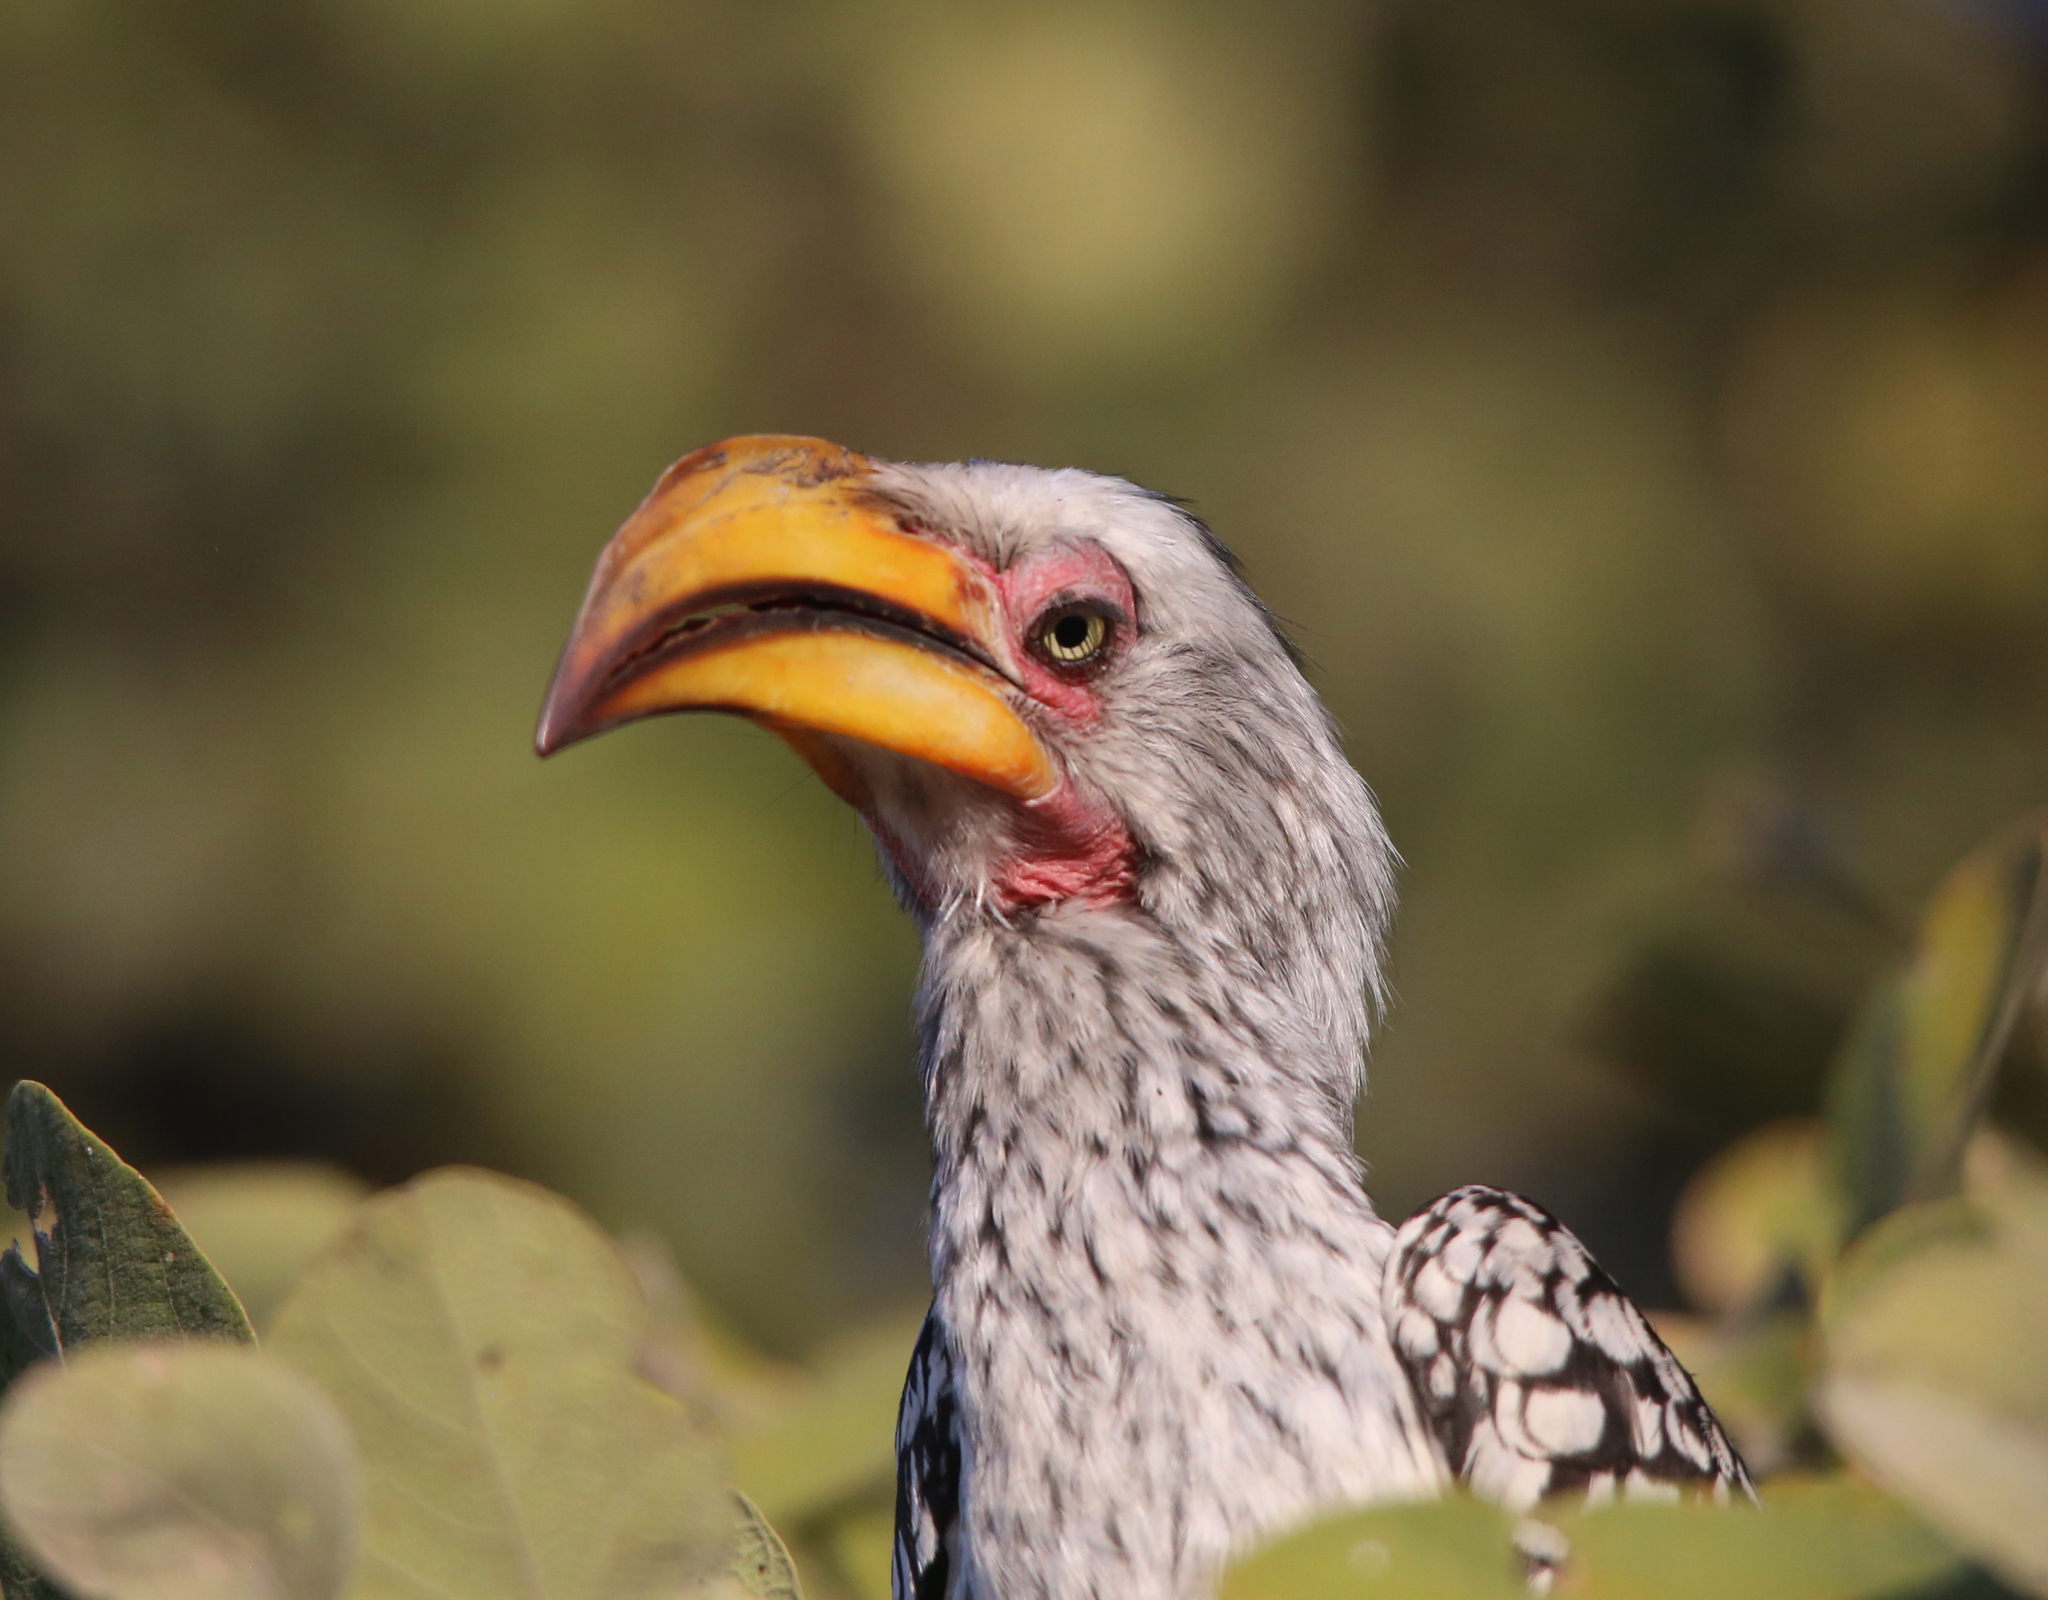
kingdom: Animalia
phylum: Chordata
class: Aves
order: Bucerotiformes
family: Bucerotidae
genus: Tockus
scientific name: Tockus leucomelas
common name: Southern yellow-billed hornbill
